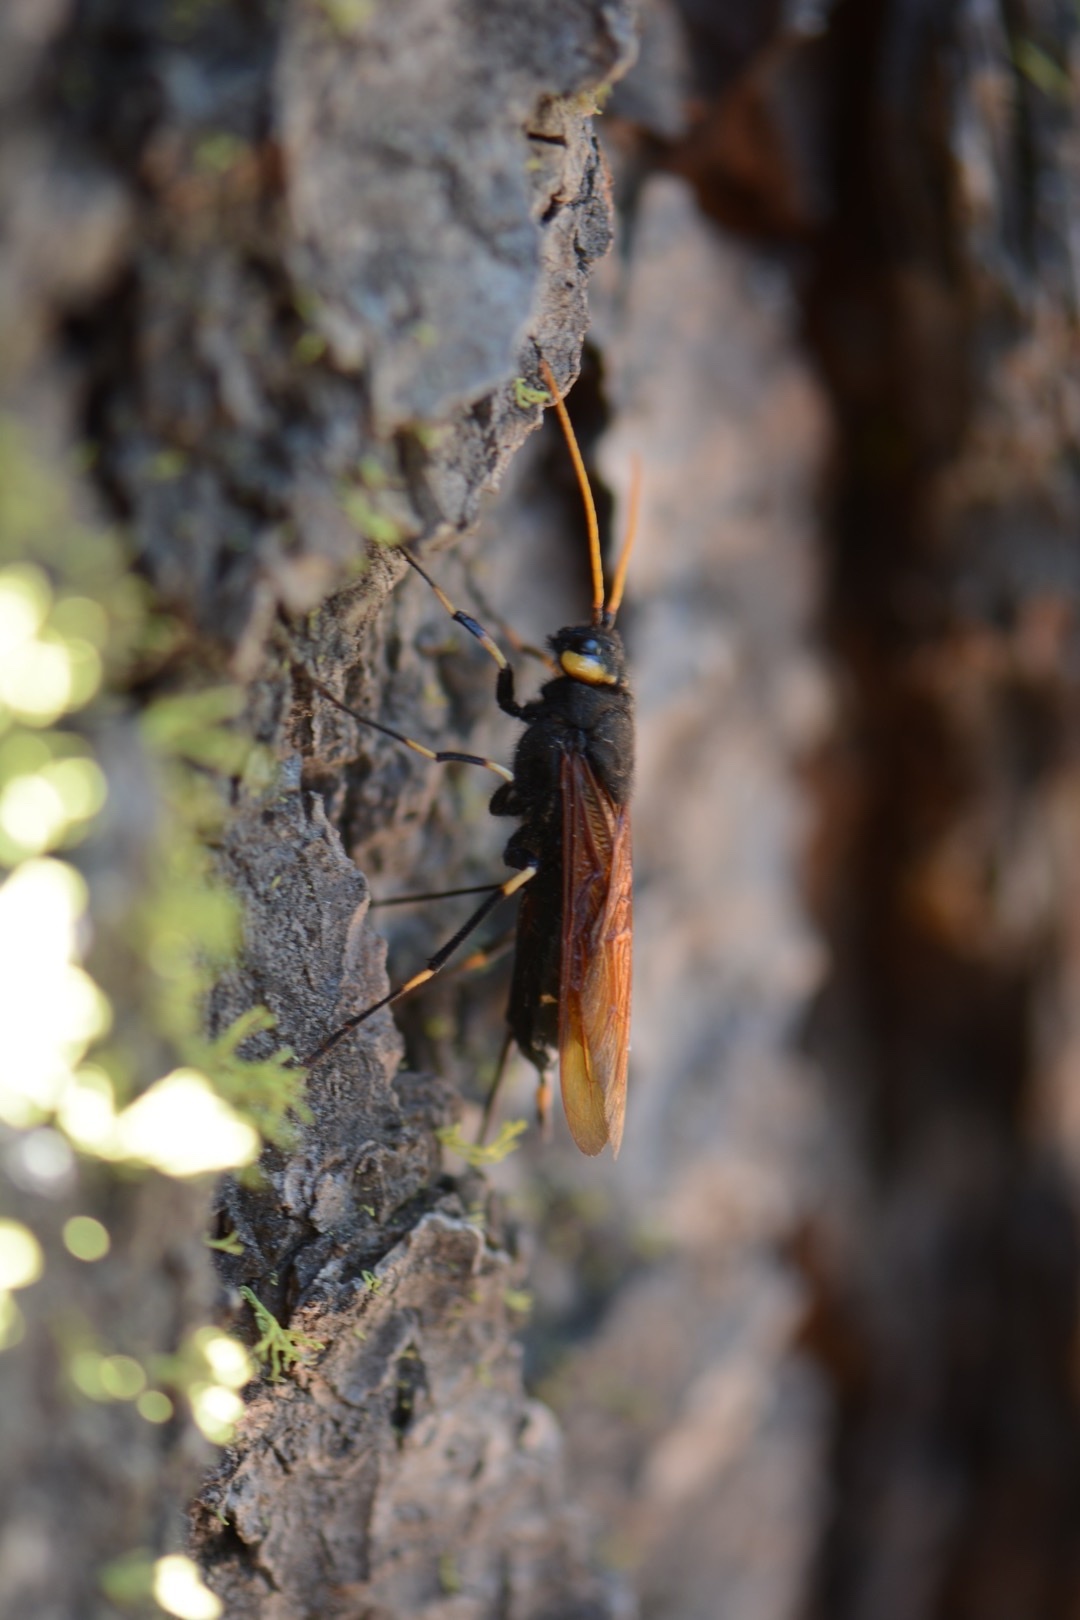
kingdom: Animalia
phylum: Arthropoda
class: Insecta
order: Hymenoptera
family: Siricidae
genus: Urocerus
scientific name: Urocerus californicus
